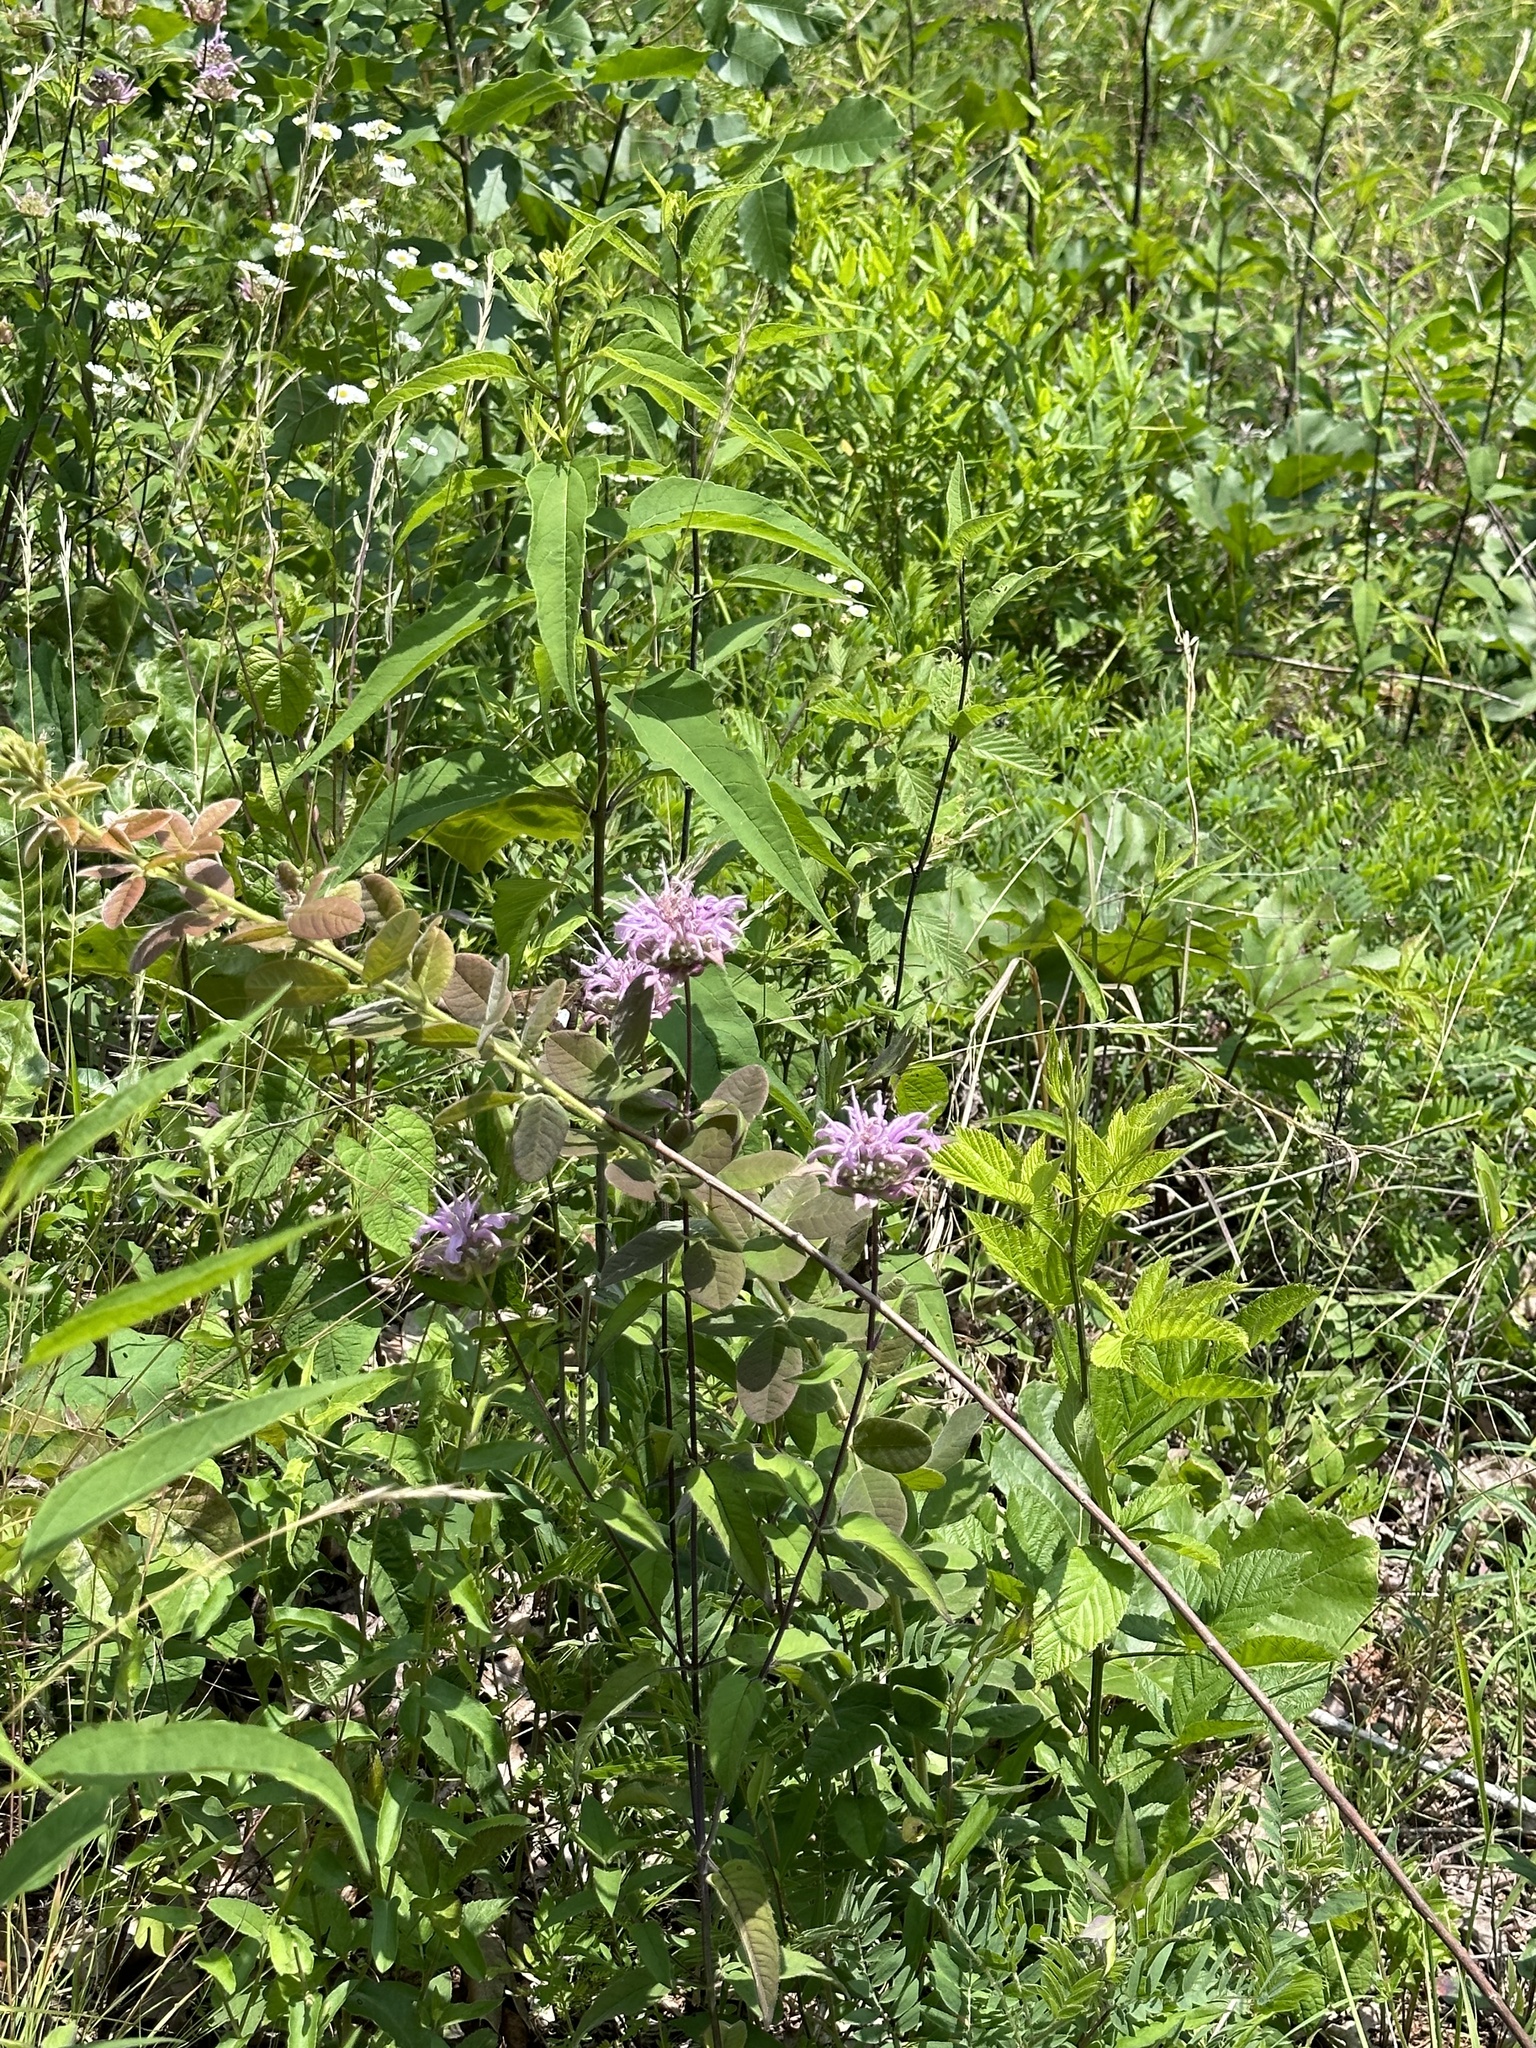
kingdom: Plantae
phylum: Tracheophyta
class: Magnoliopsida
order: Lamiales
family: Lamiaceae
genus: Monarda
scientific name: Monarda fistulosa
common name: Purple beebalm
